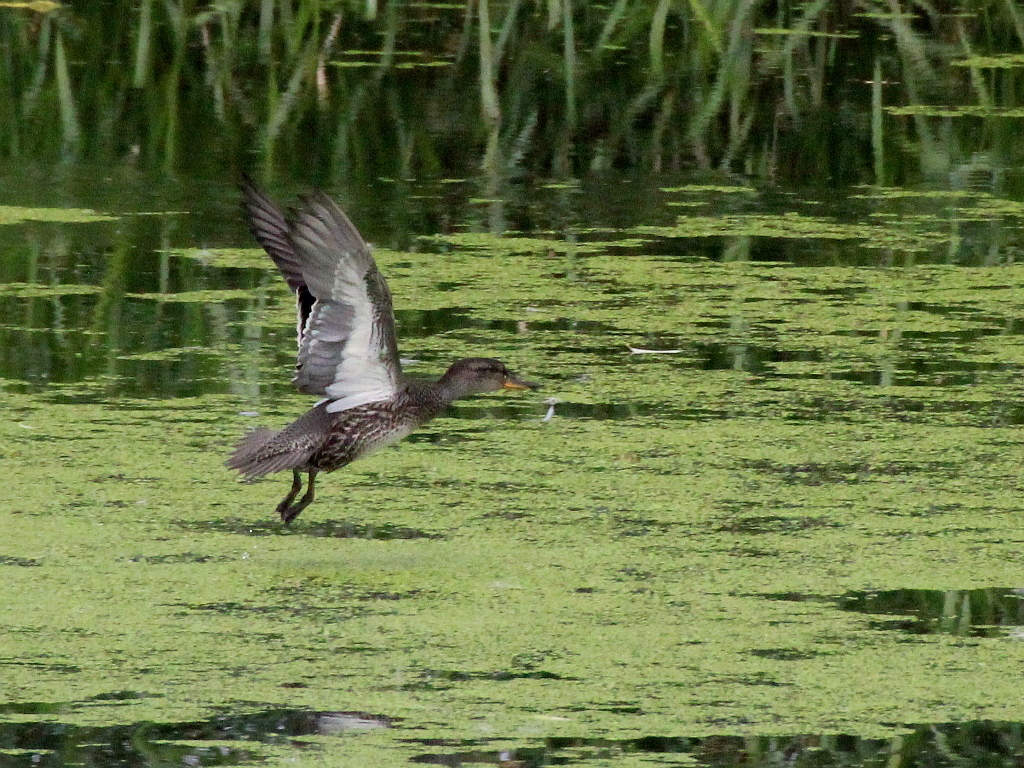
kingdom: Animalia
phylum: Chordata
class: Aves
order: Anseriformes
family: Anatidae
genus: Anas
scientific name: Anas crecca
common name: Eurasian teal
